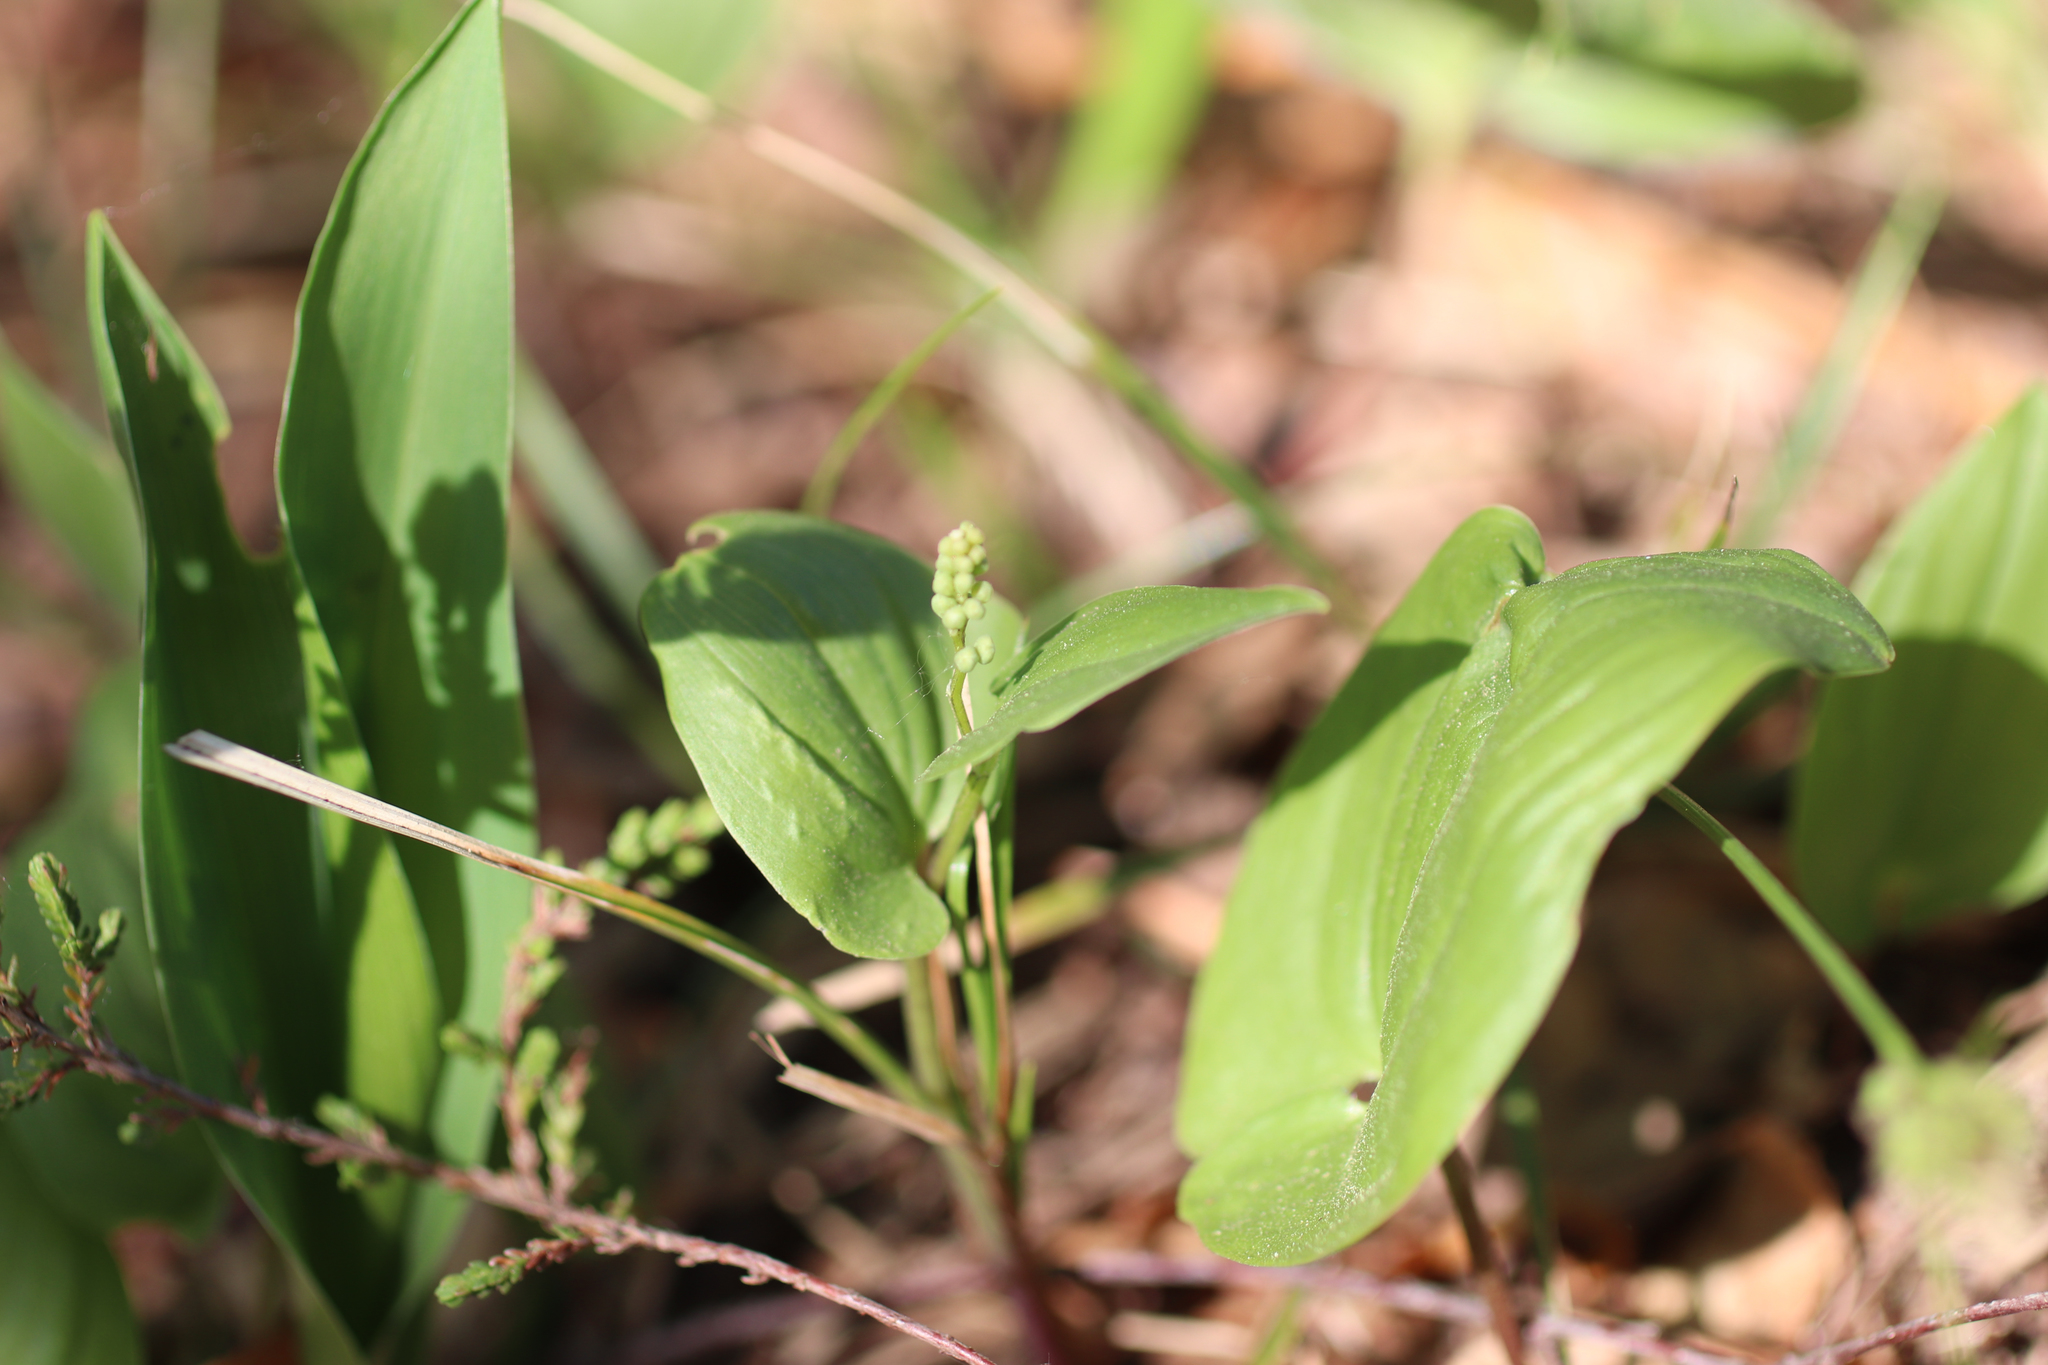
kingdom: Plantae
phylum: Tracheophyta
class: Liliopsida
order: Asparagales
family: Asparagaceae
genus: Maianthemum
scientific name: Maianthemum bifolium
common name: May lily
